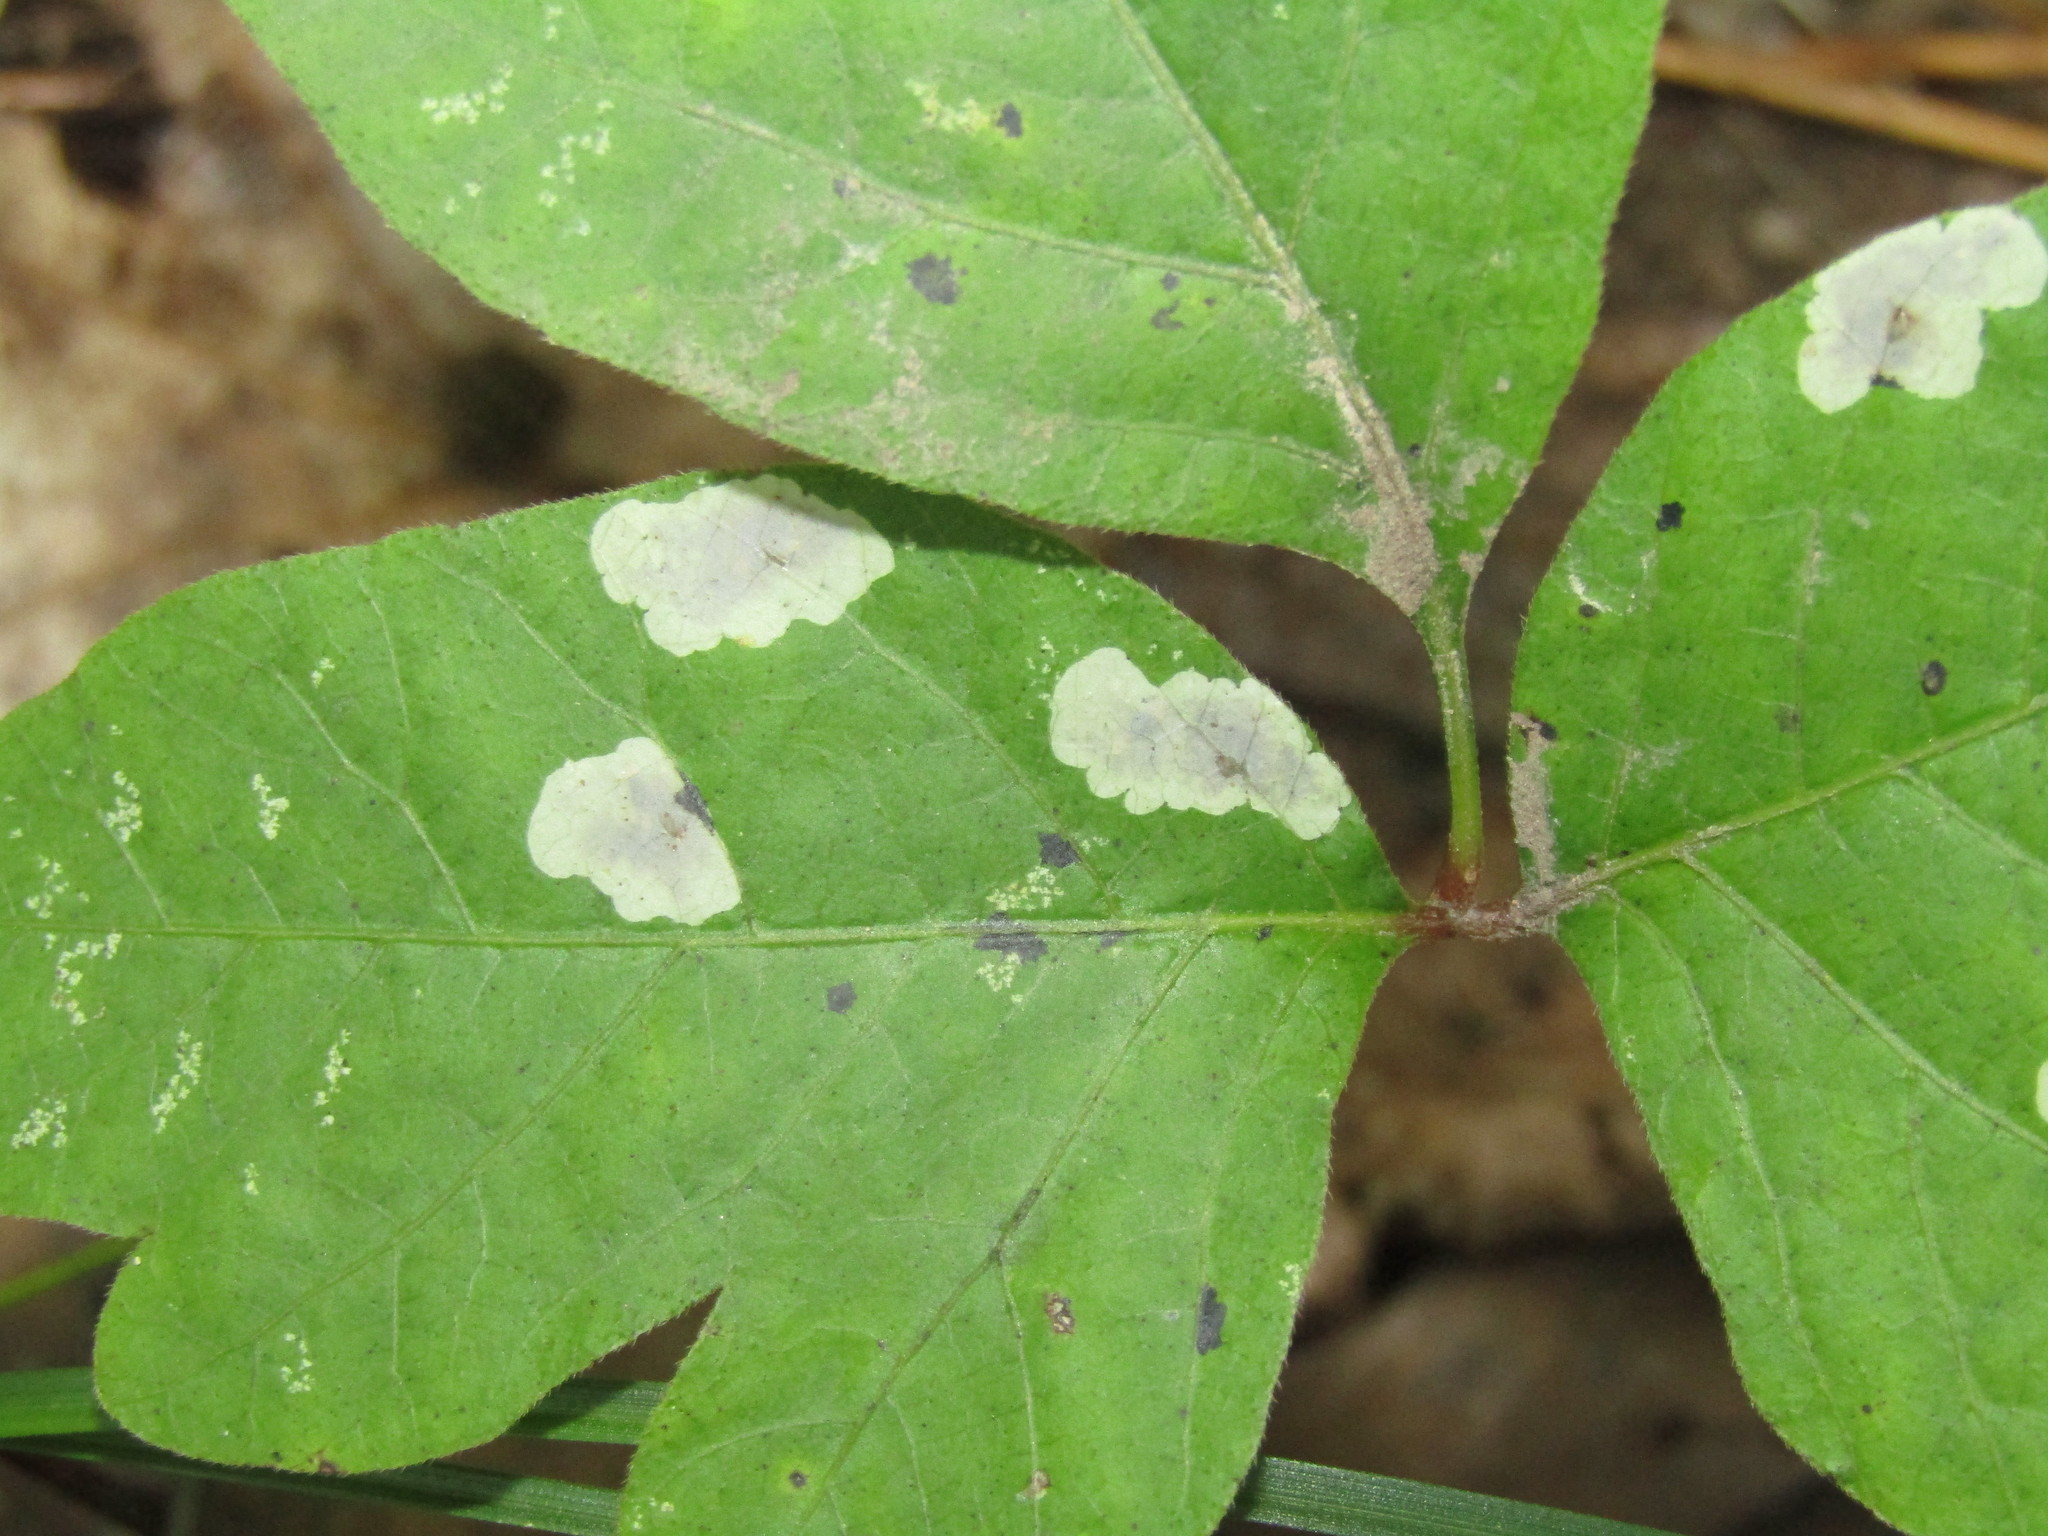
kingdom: Animalia
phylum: Arthropoda
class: Insecta
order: Lepidoptera
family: Gracillariidae
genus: Cameraria
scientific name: Cameraria guttifinitella
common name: Poison ivy leaf-miner moth
